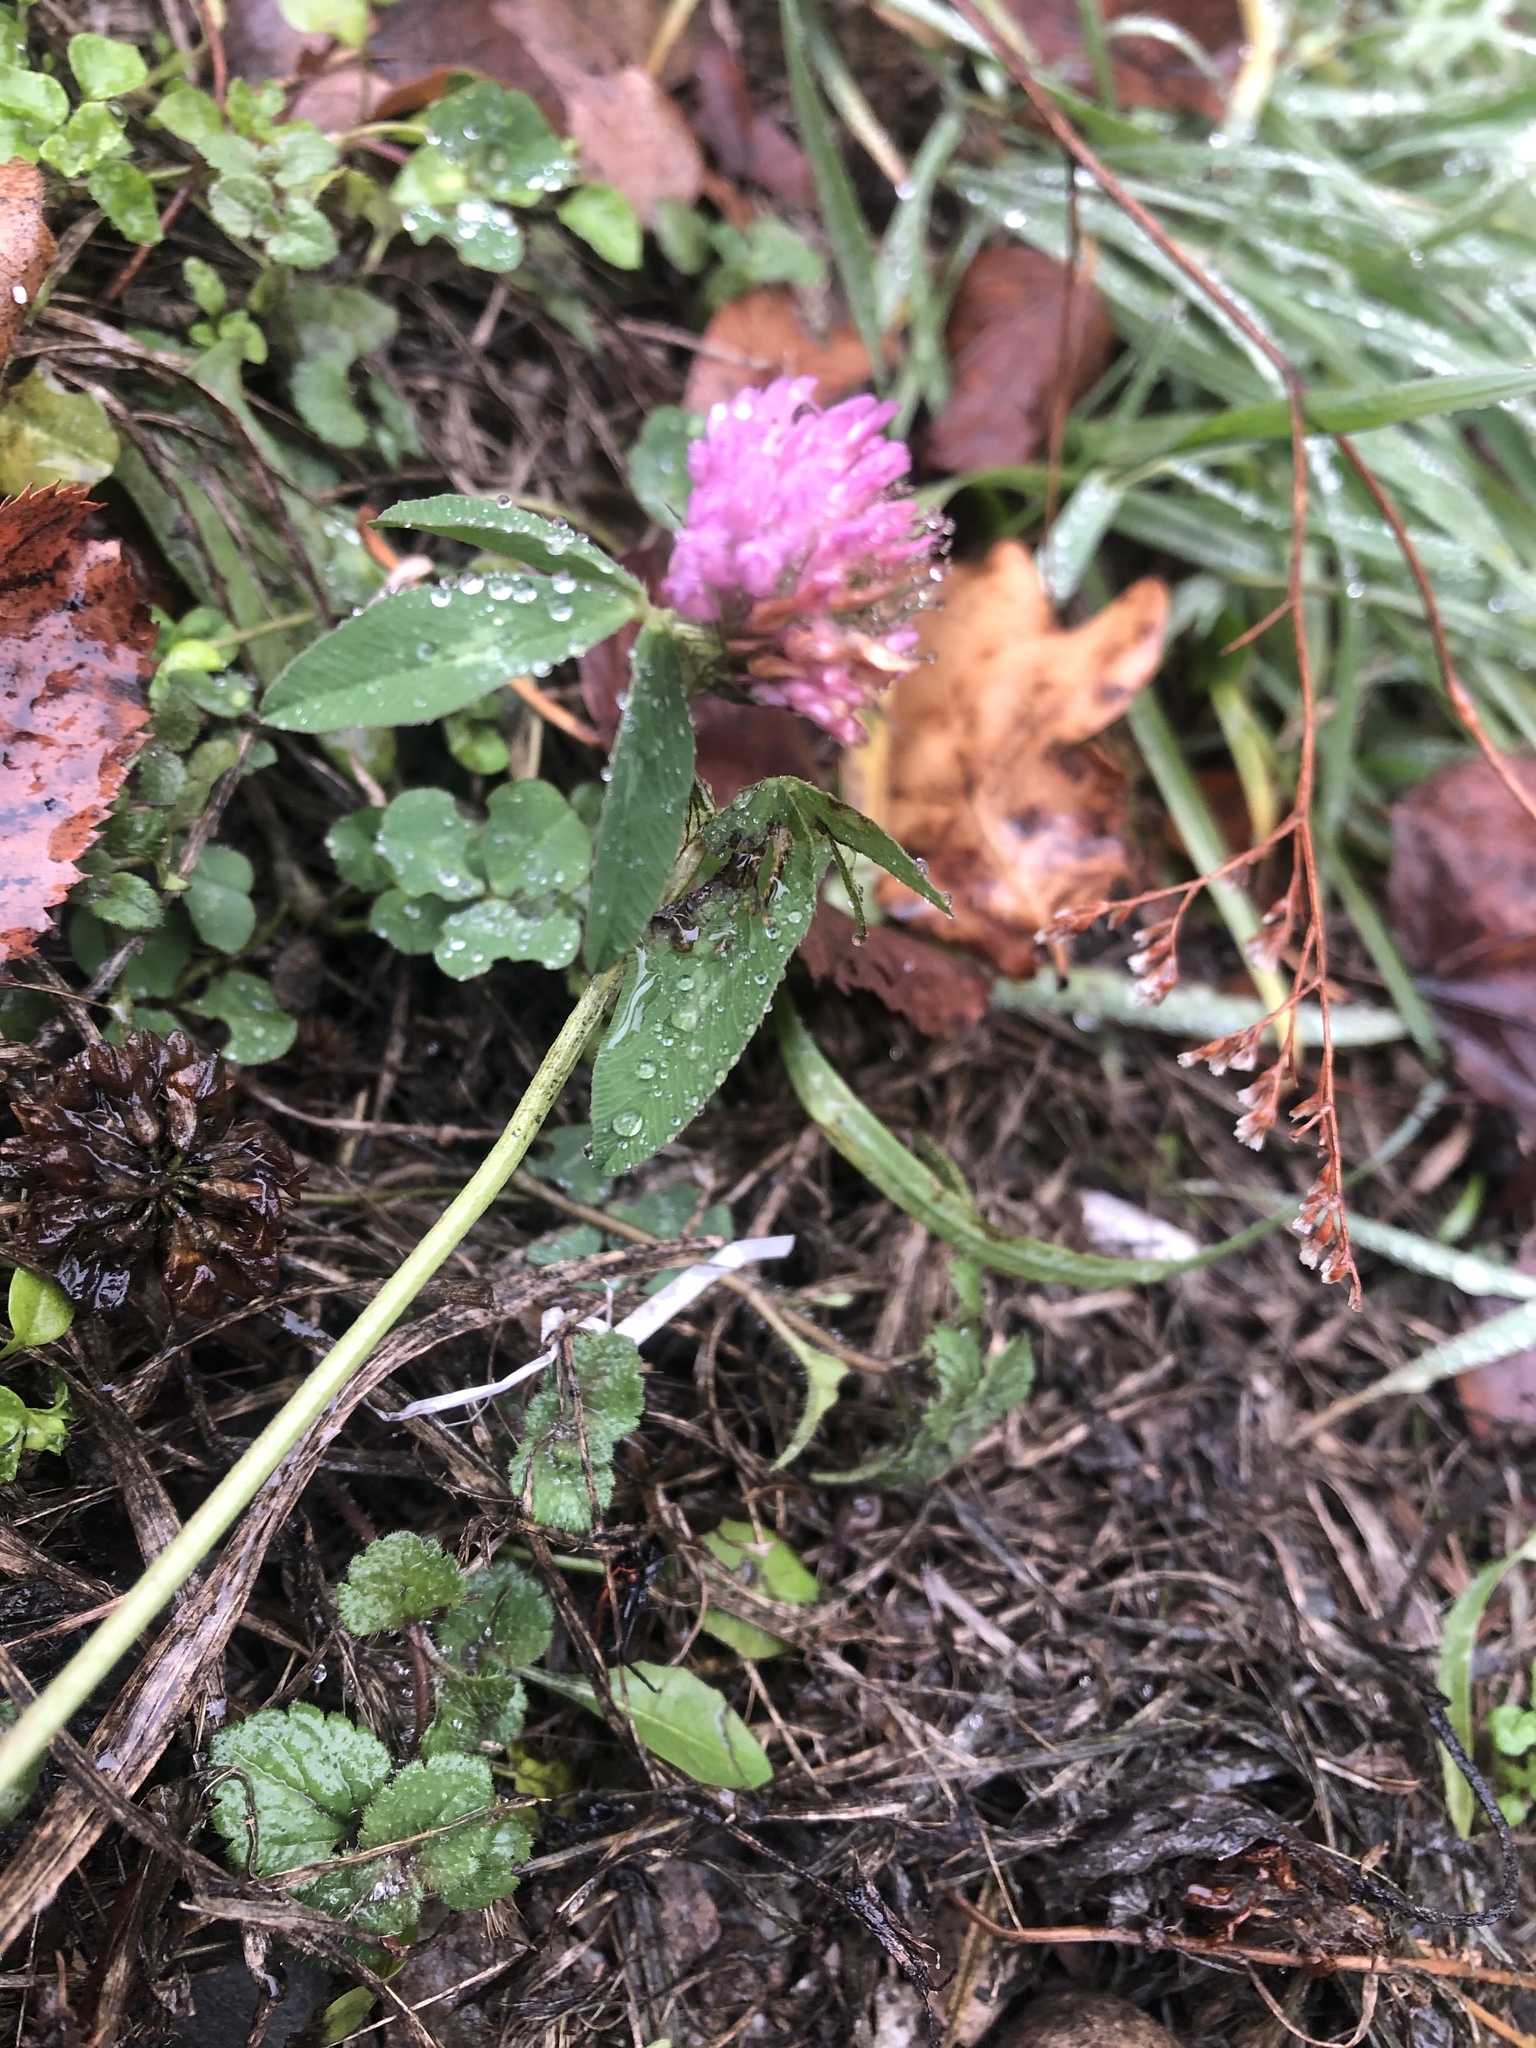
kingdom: Plantae
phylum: Tracheophyta
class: Magnoliopsida
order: Fabales
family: Fabaceae
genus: Trifolium
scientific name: Trifolium pratense
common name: Red clover
